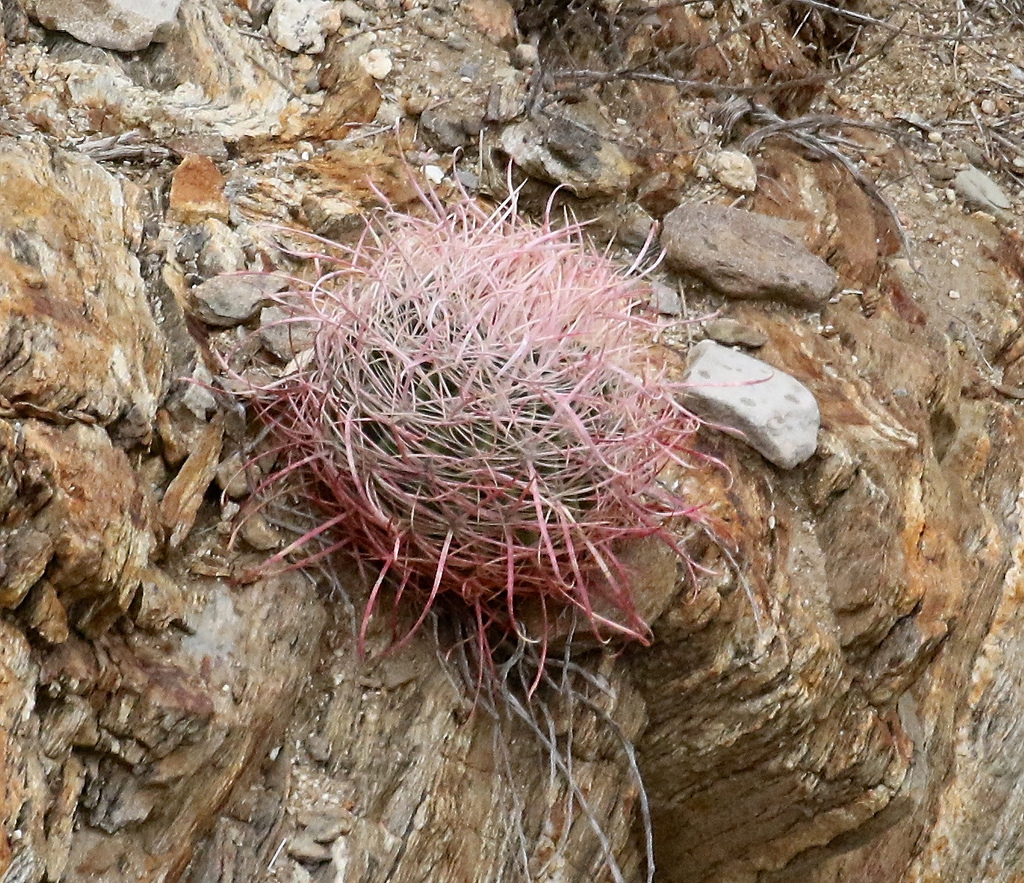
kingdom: Plantae
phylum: Tracheophyta
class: Magnoliopsida
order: Caryophyllales
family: Cactaceae
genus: Ferocactus
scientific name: Ferocactus cylindraceus
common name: California barrel cactus
